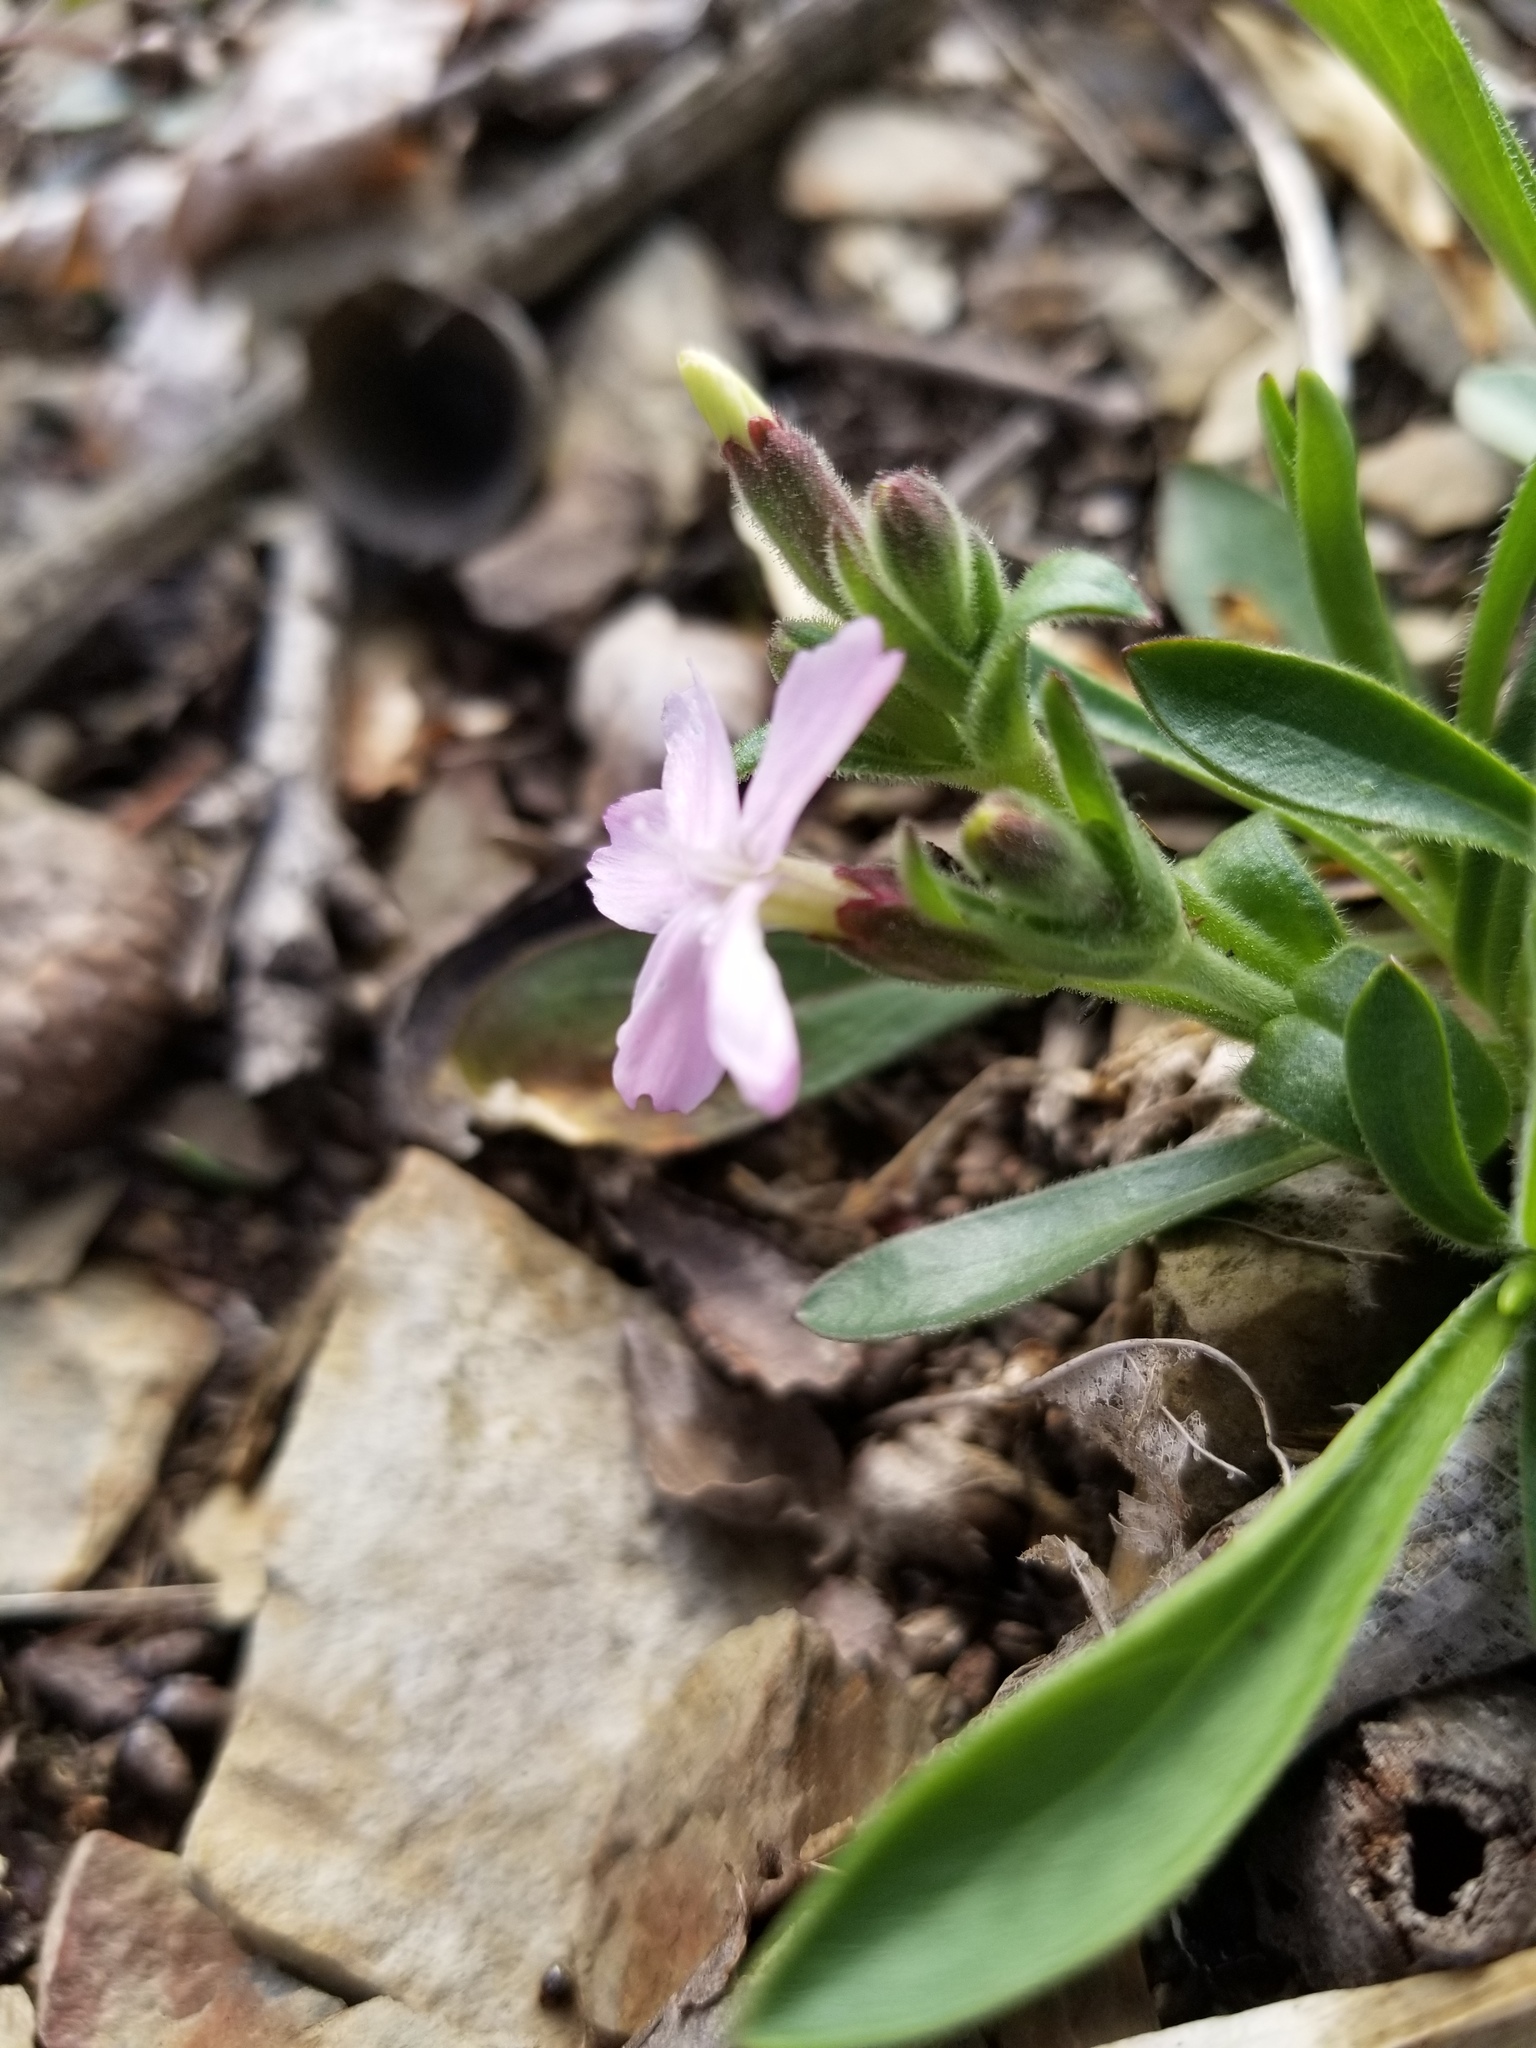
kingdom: Plantae
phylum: Tracheophyta
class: Magnoliopsida
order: Caryophyllales
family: Caryophyllaceae
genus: Silene
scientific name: Silene caroliniana
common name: Sticky catchfly
